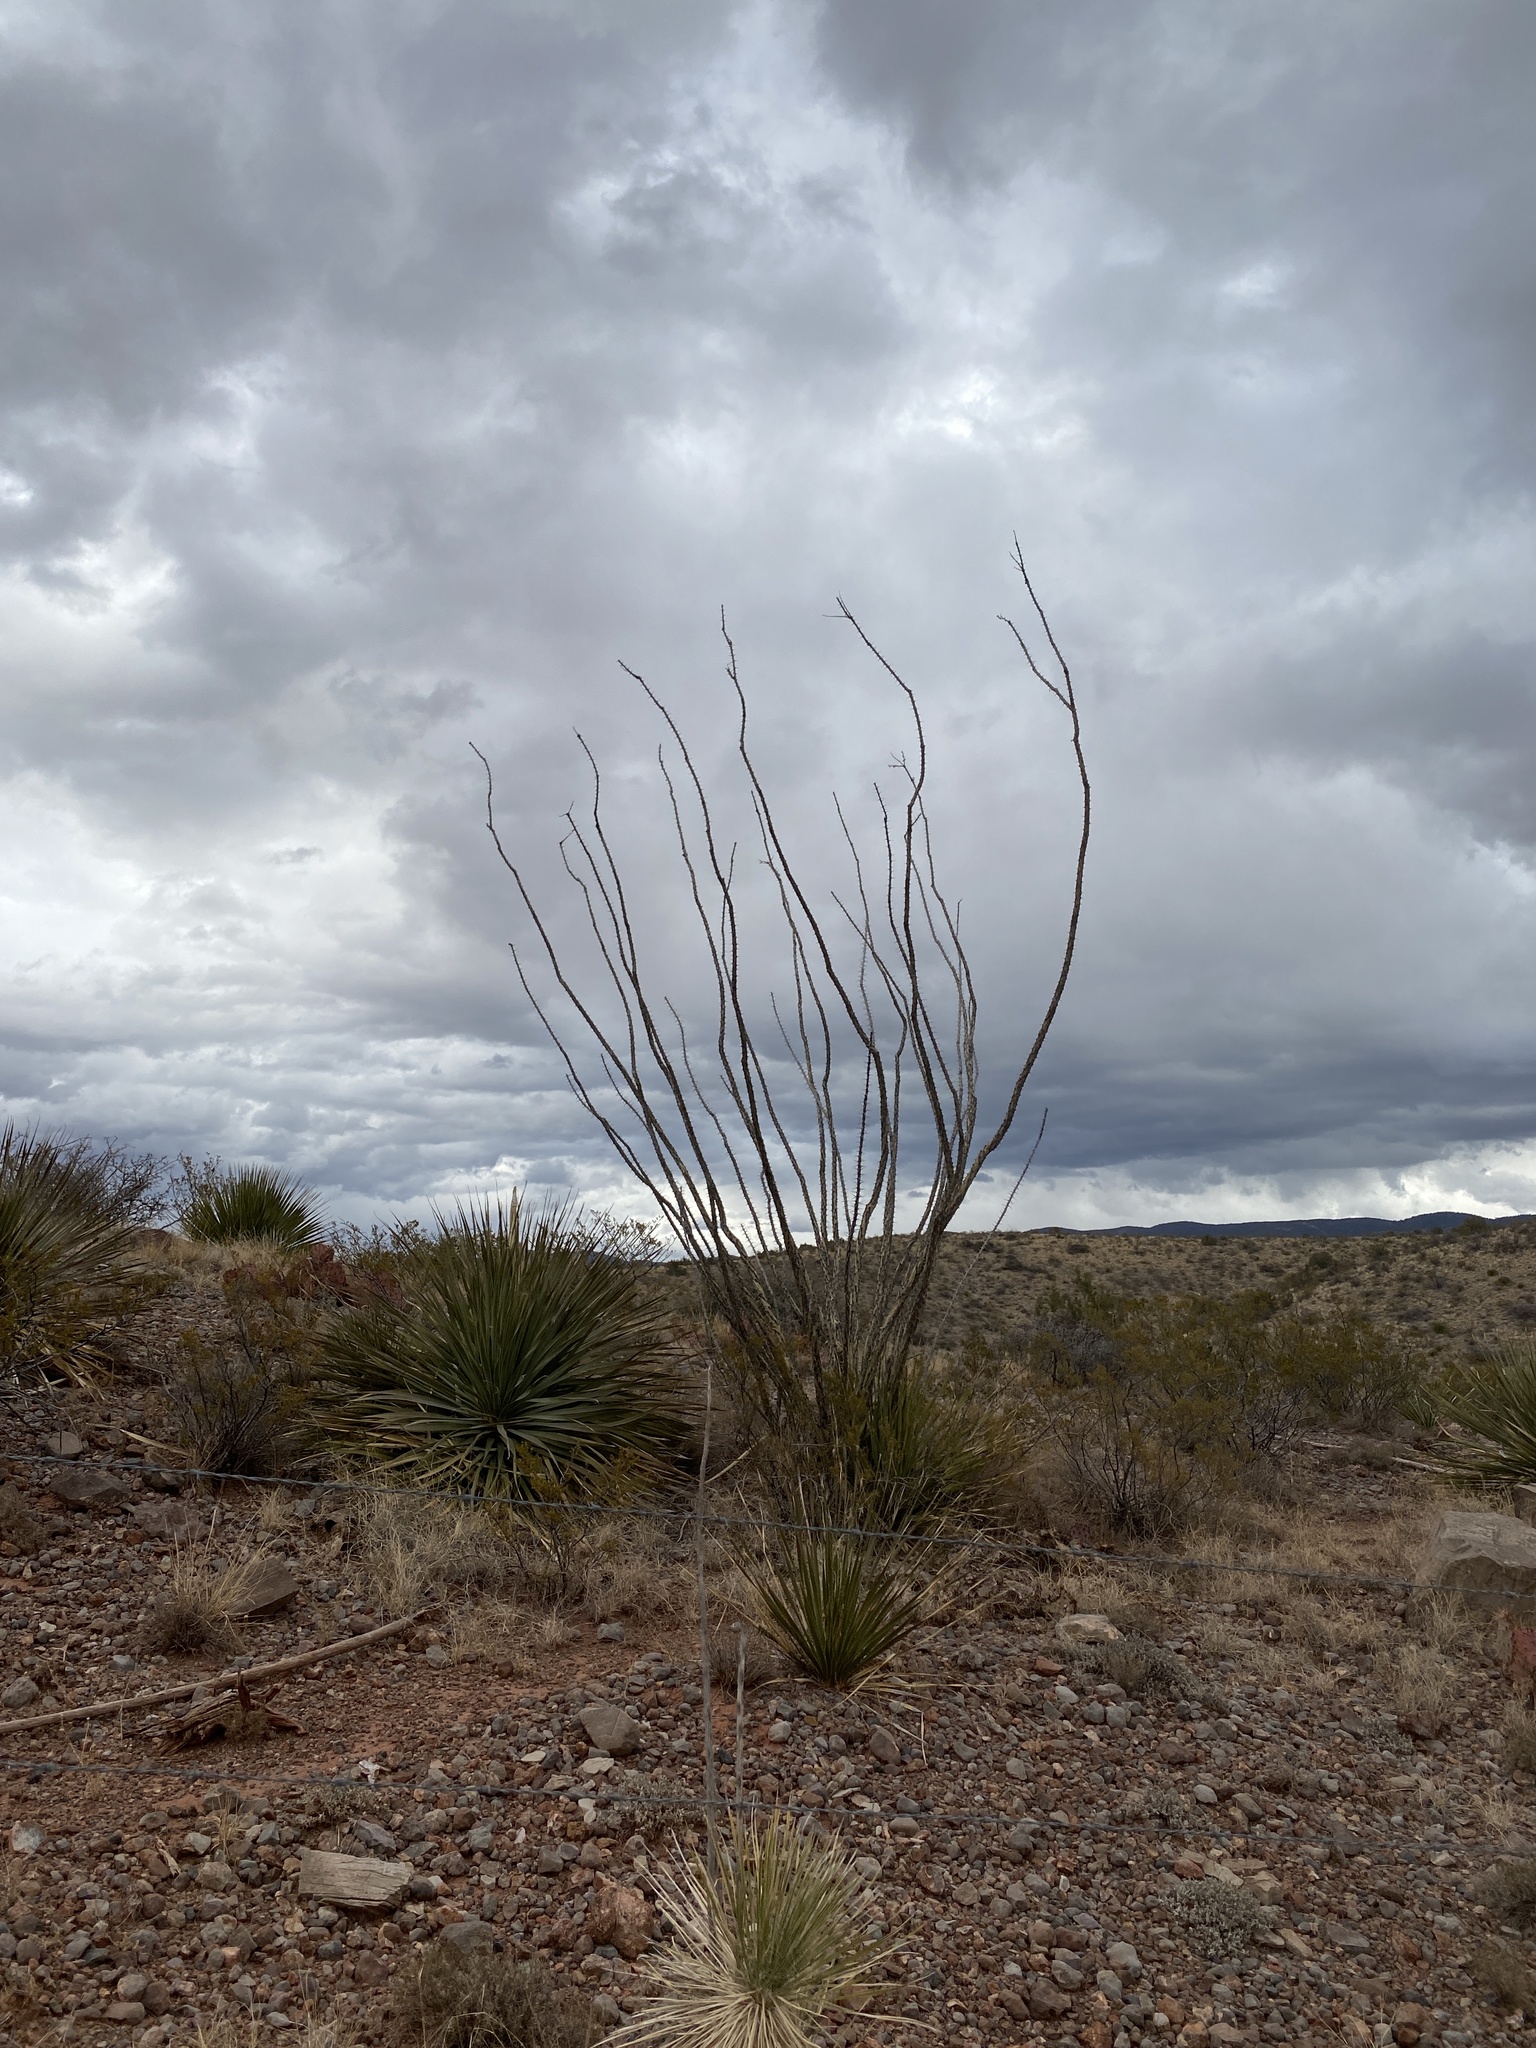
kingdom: Plantae
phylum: Tracheophyta
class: Magnoliopsida
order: Ericales
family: Fouquieriaceae
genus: Fouquieria
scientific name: Fouquieria splendens
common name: Vine-cactus
